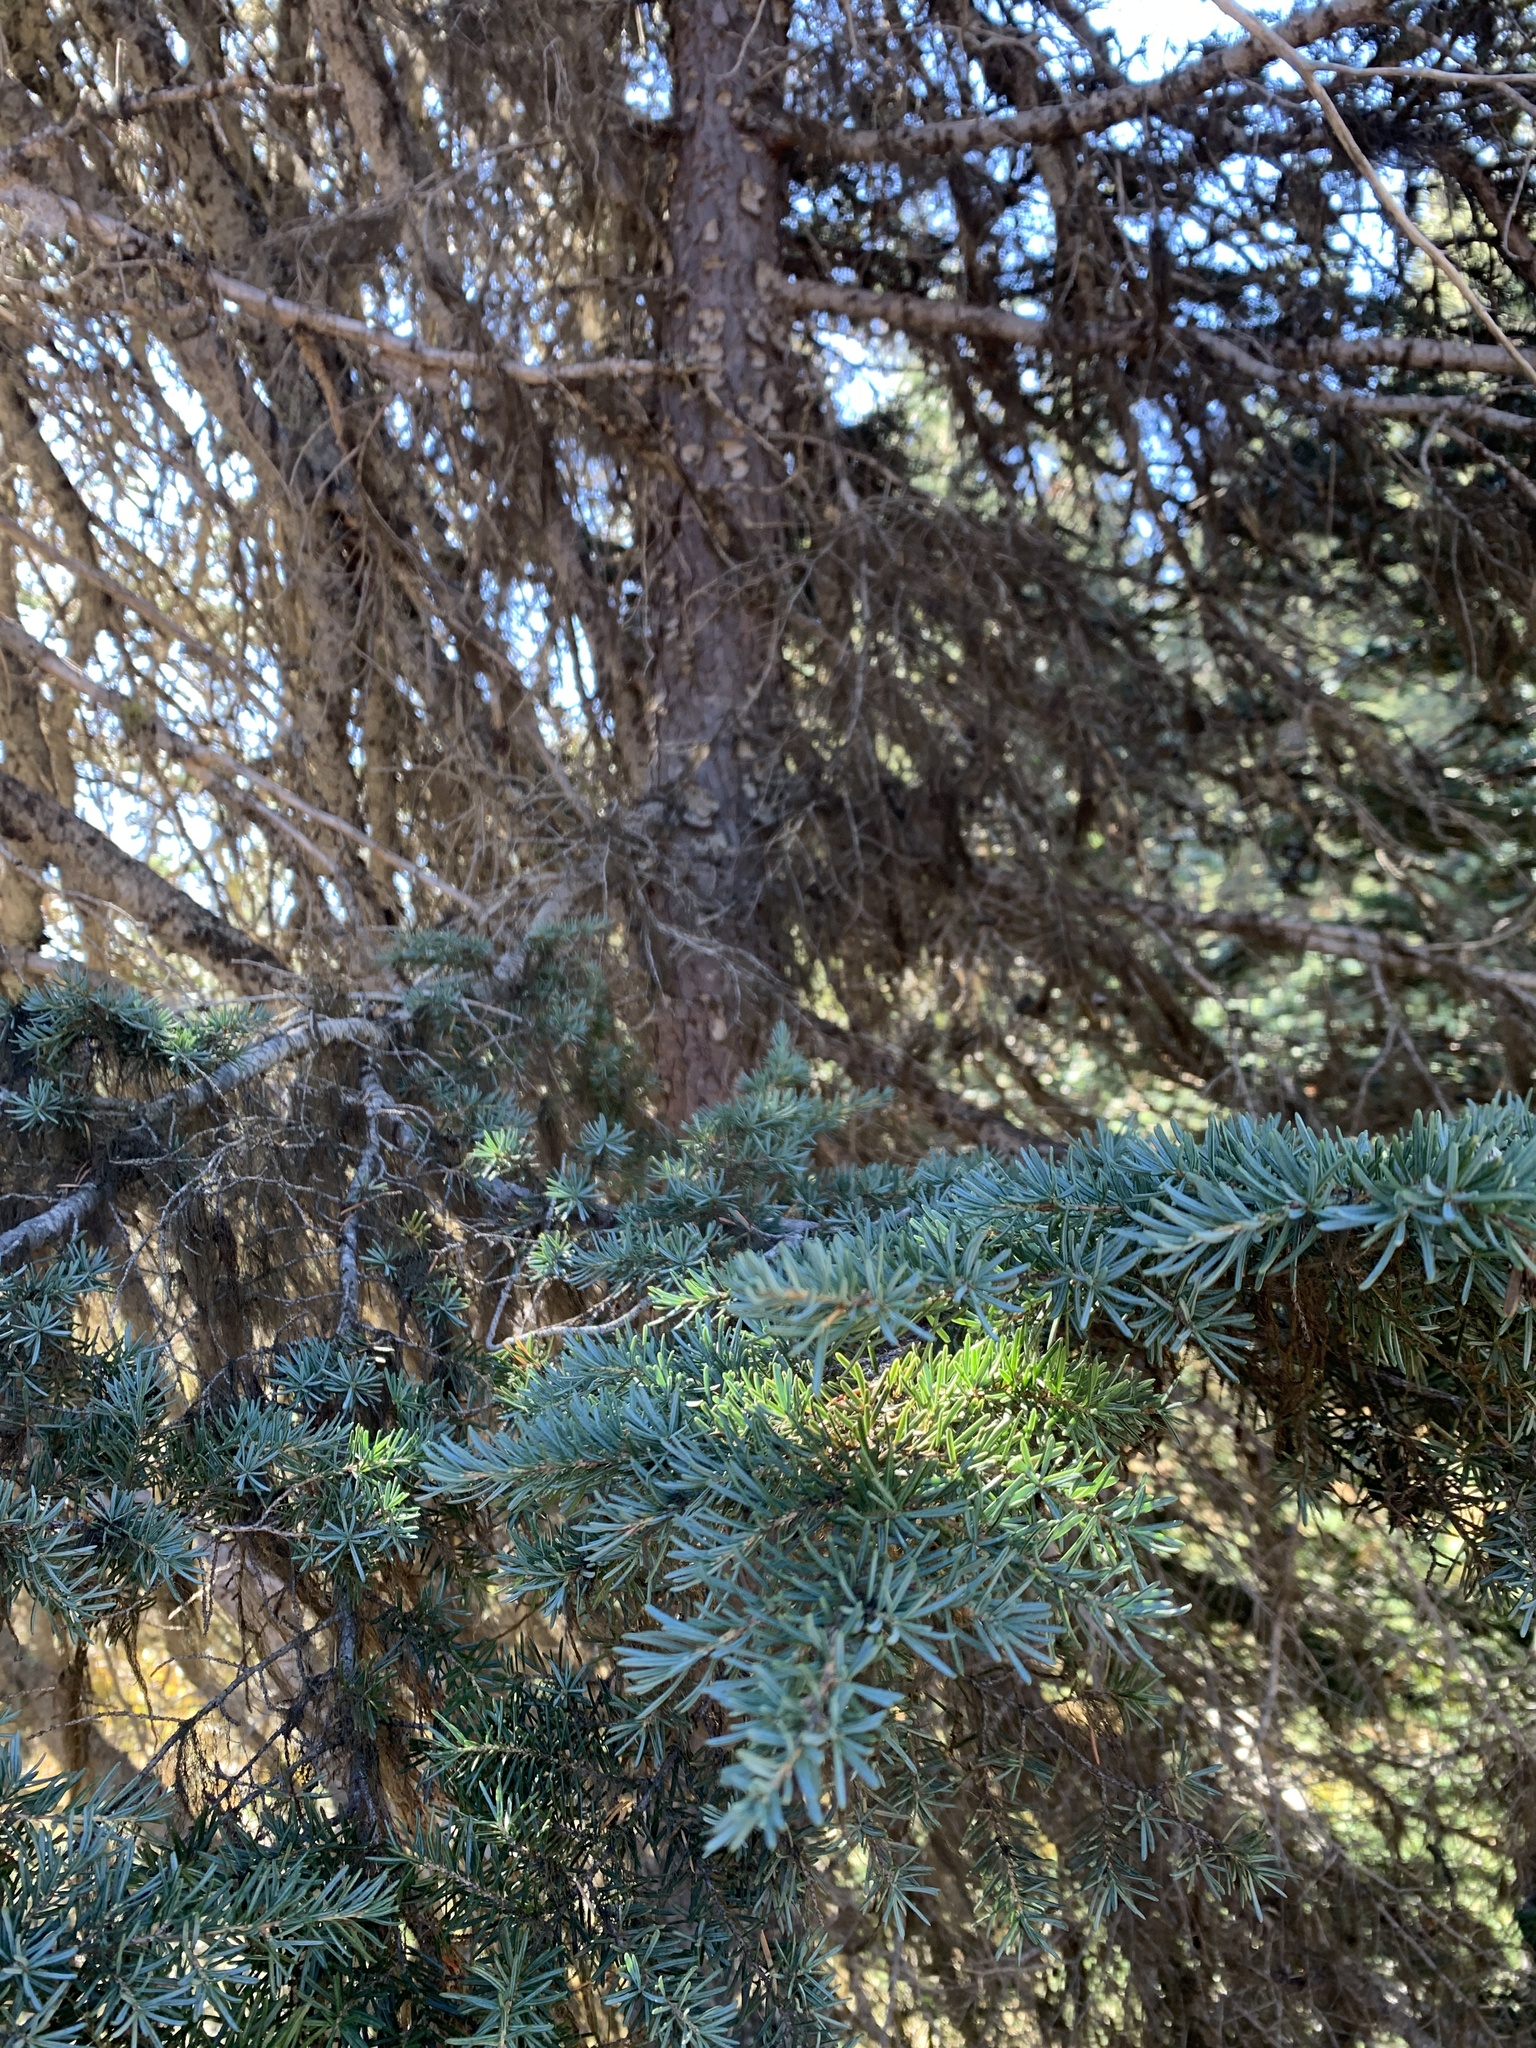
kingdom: Plantae
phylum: Tracheophyta
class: Pinopsida
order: Pinales
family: Pinaceae
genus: Tsuga
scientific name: Tsuga mertensiana
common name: Mountain hemlock
